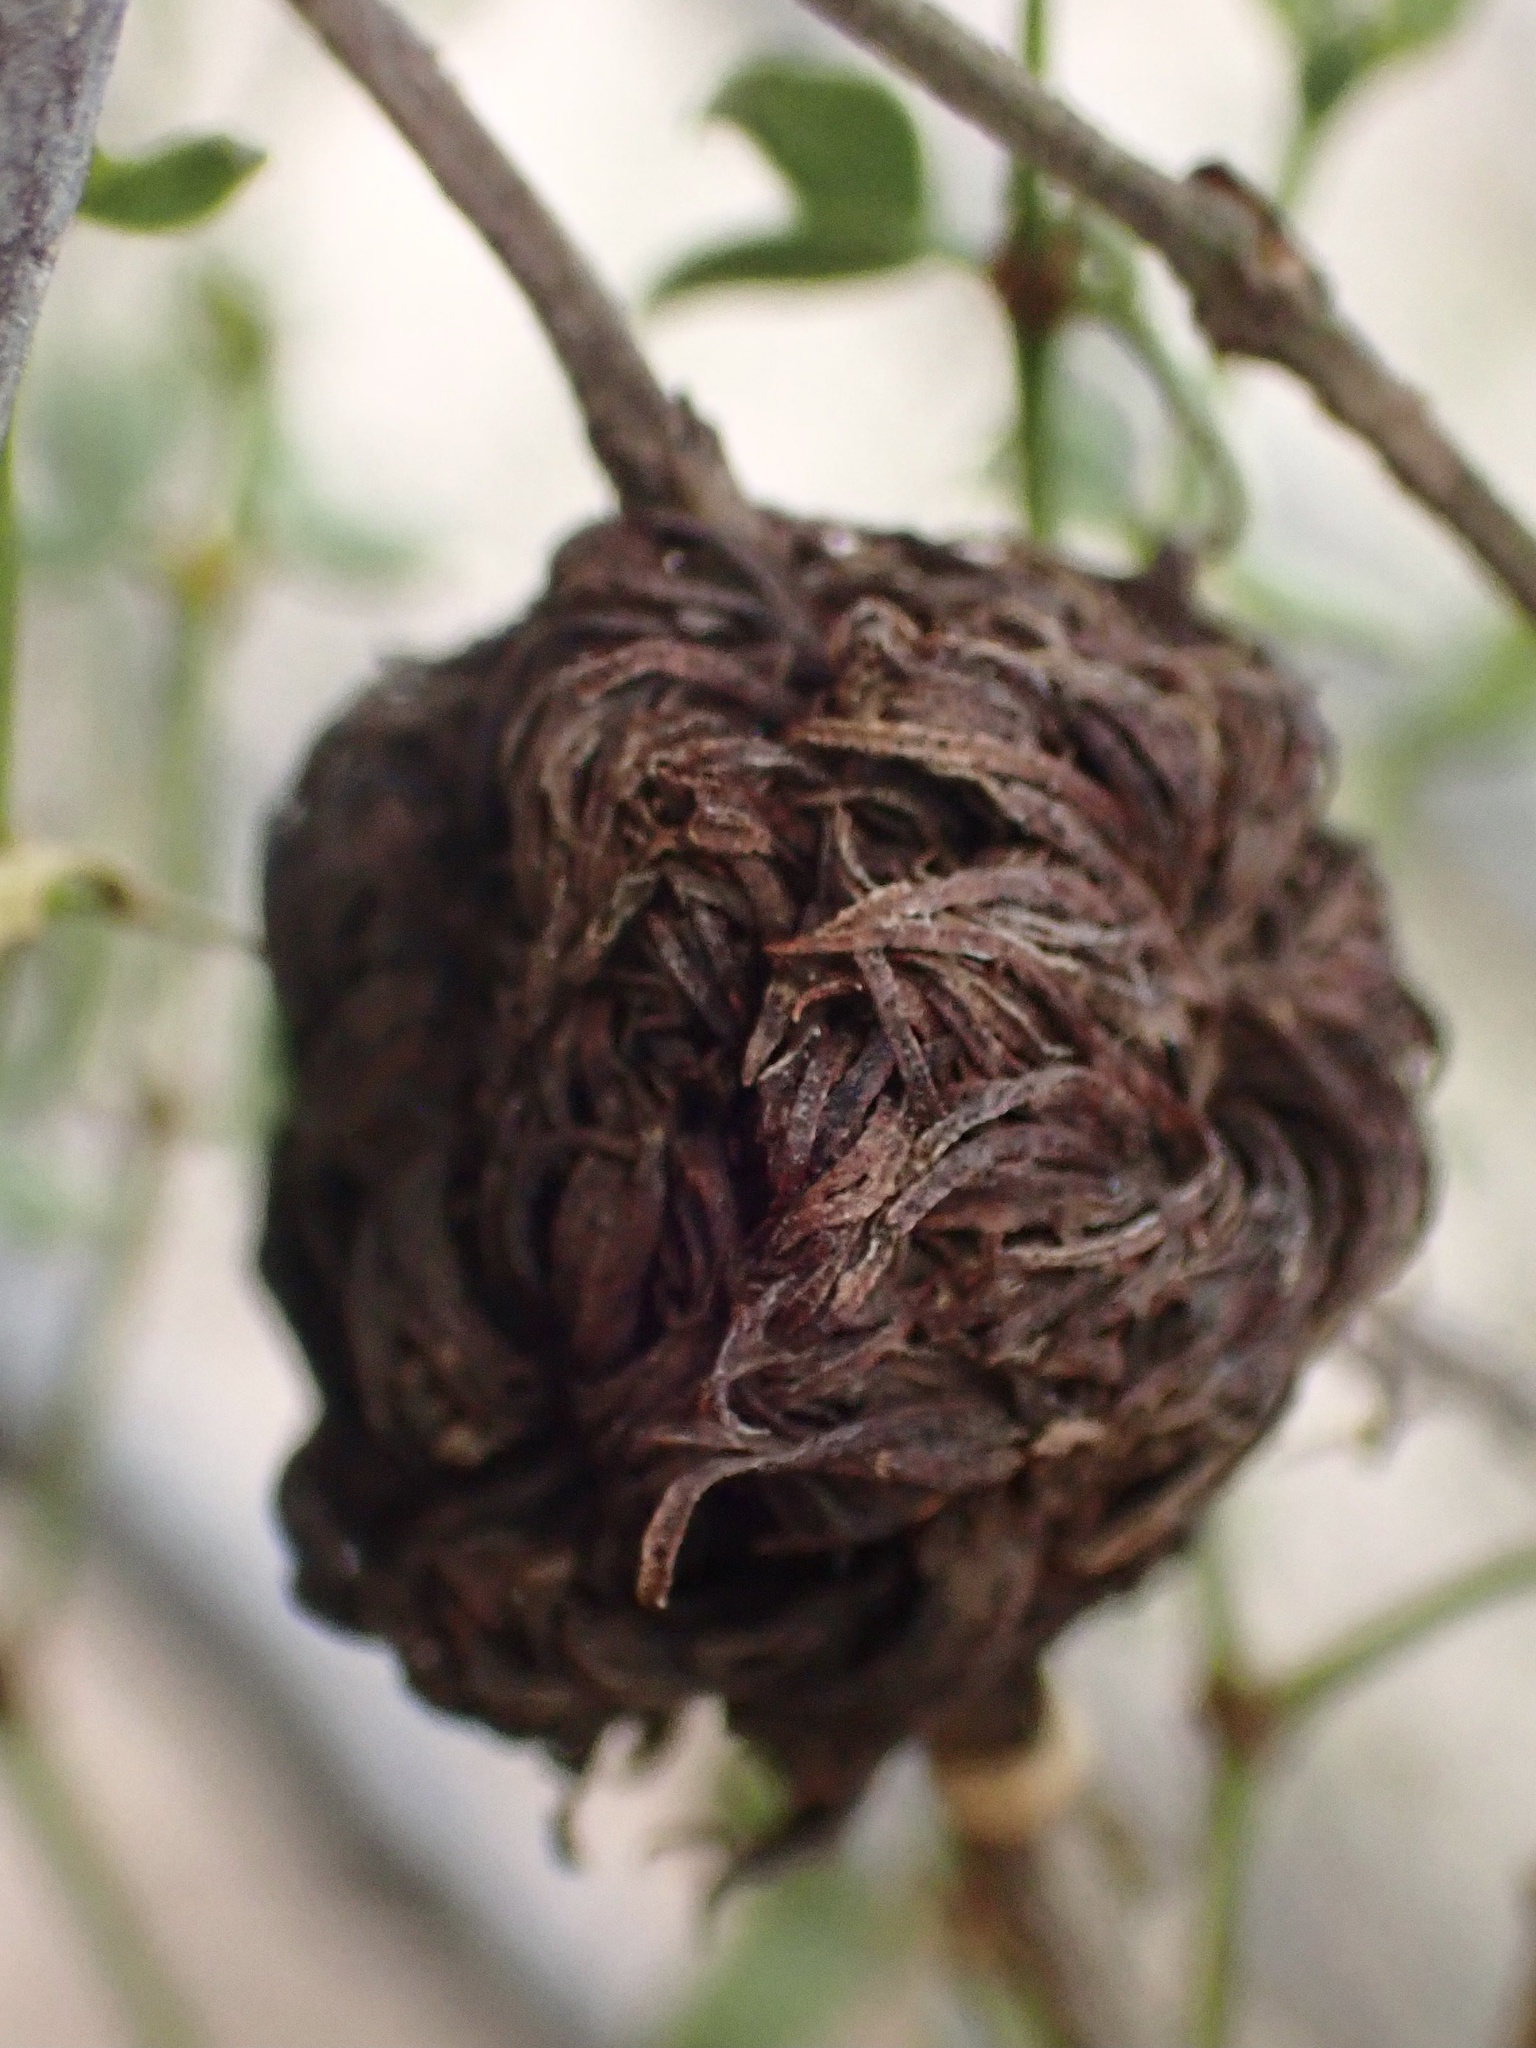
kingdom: Animalia
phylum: Arthropoda
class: Insecta
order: Diptera
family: Cecidomyiidae
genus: Asphondylia
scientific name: Asphondylia auripila
